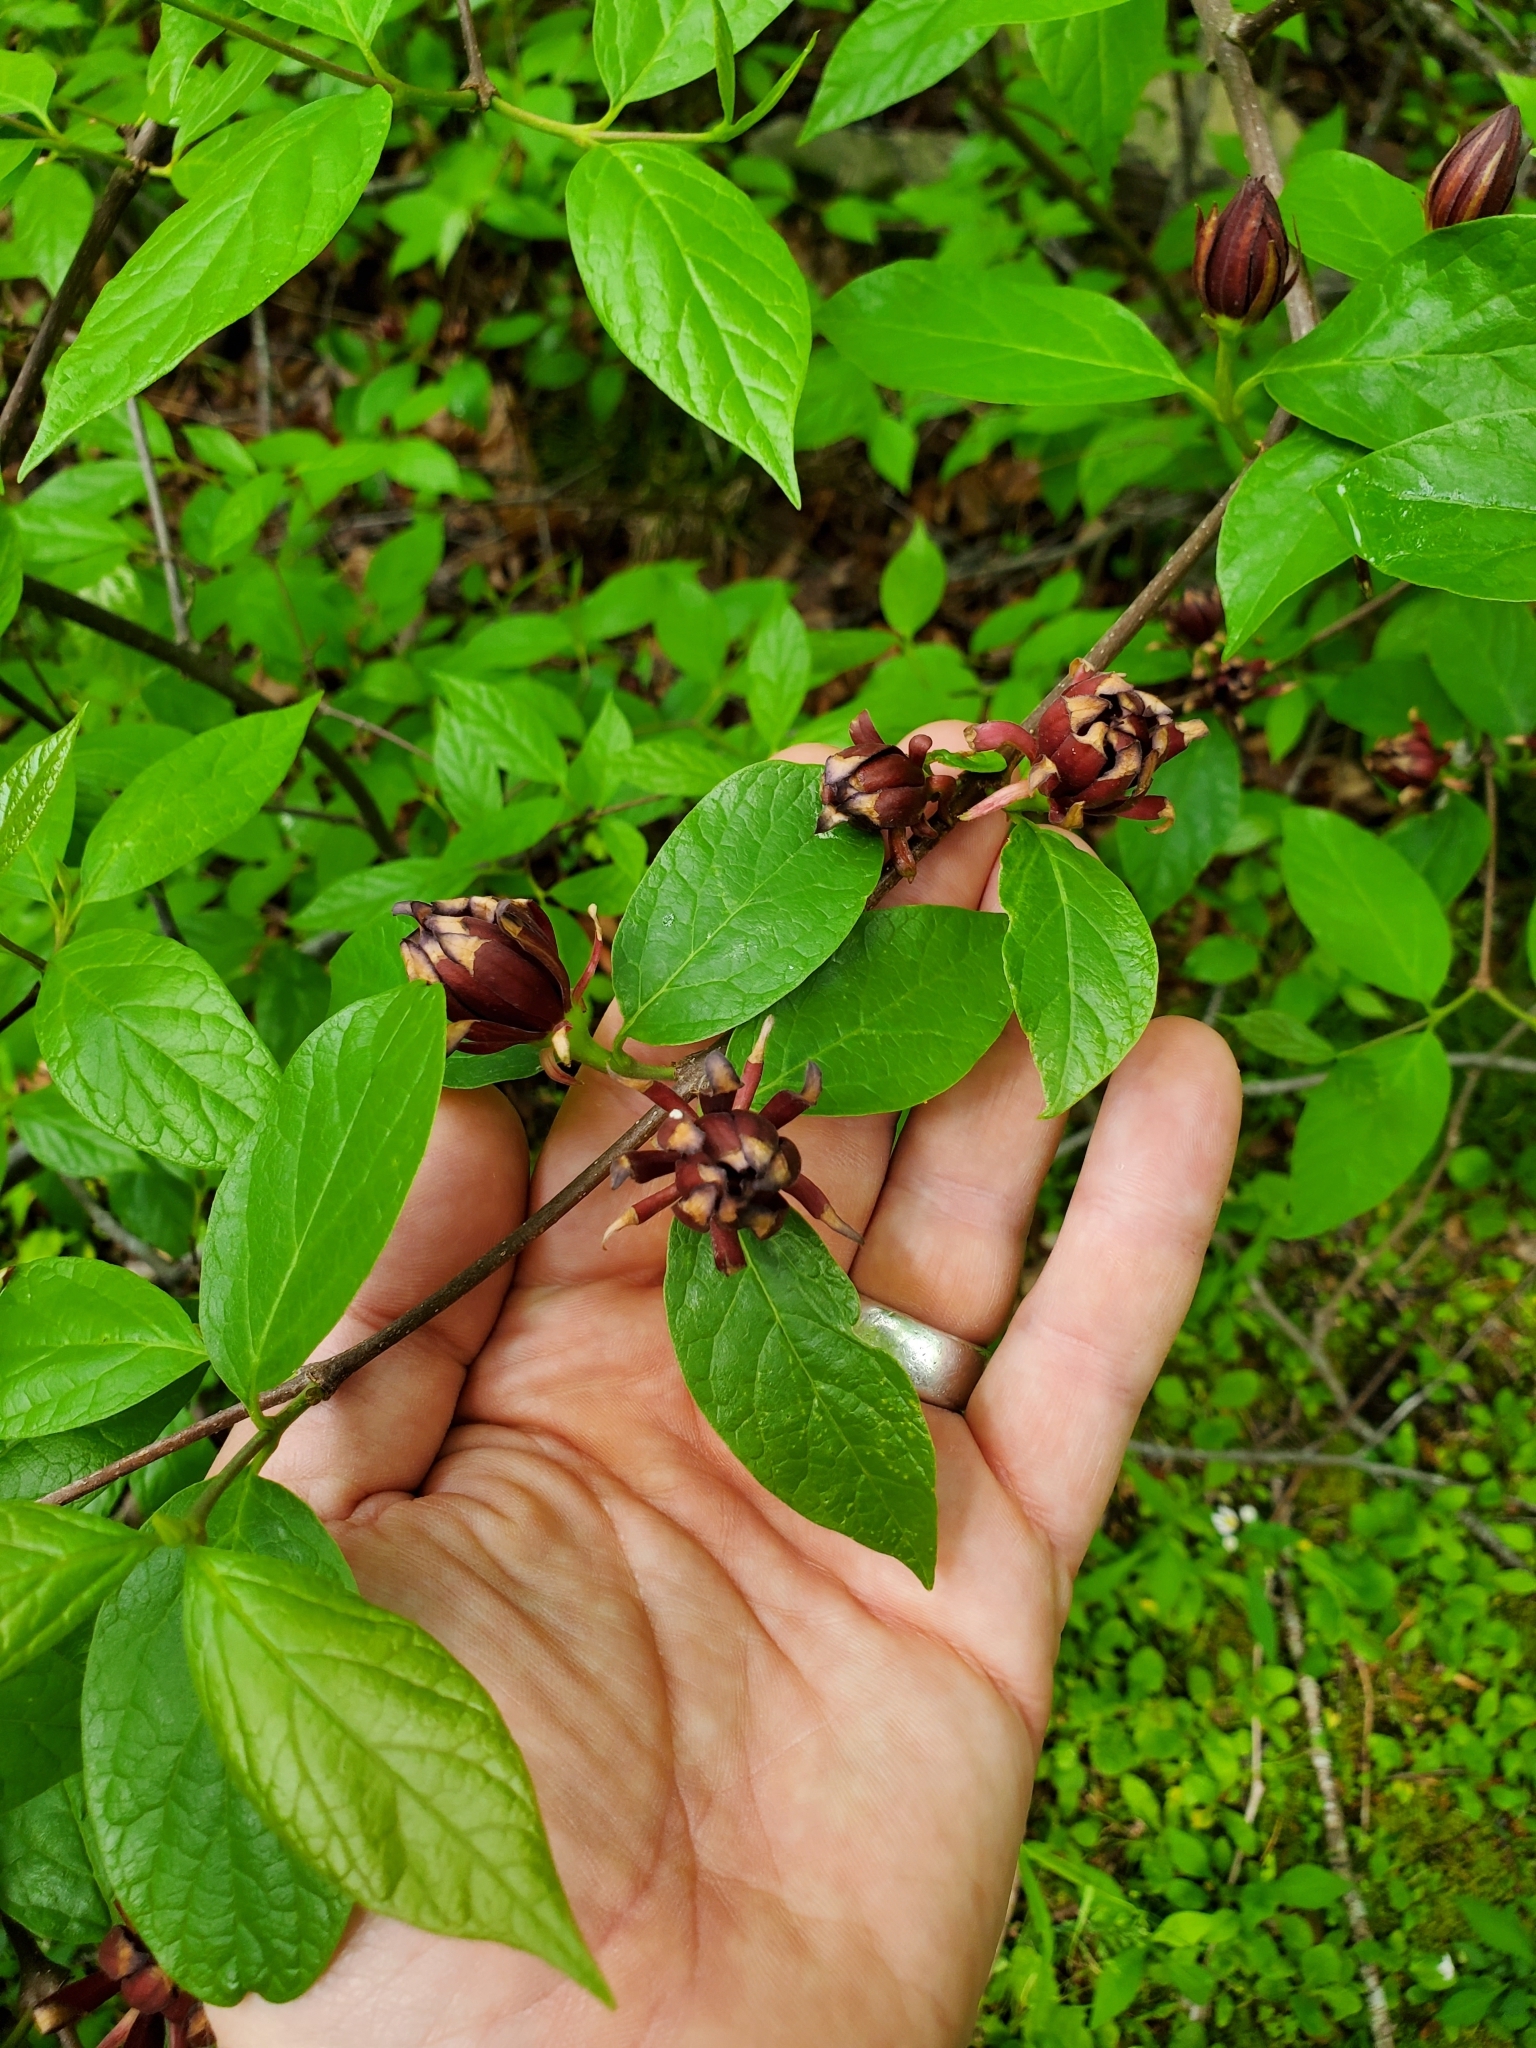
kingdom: Plantae
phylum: Tracheophyta
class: Magnoliopsida
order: Laurales
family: Calycanthaceae
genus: Calycanthus
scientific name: Calycanthus floridus
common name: Carolina-allspice
